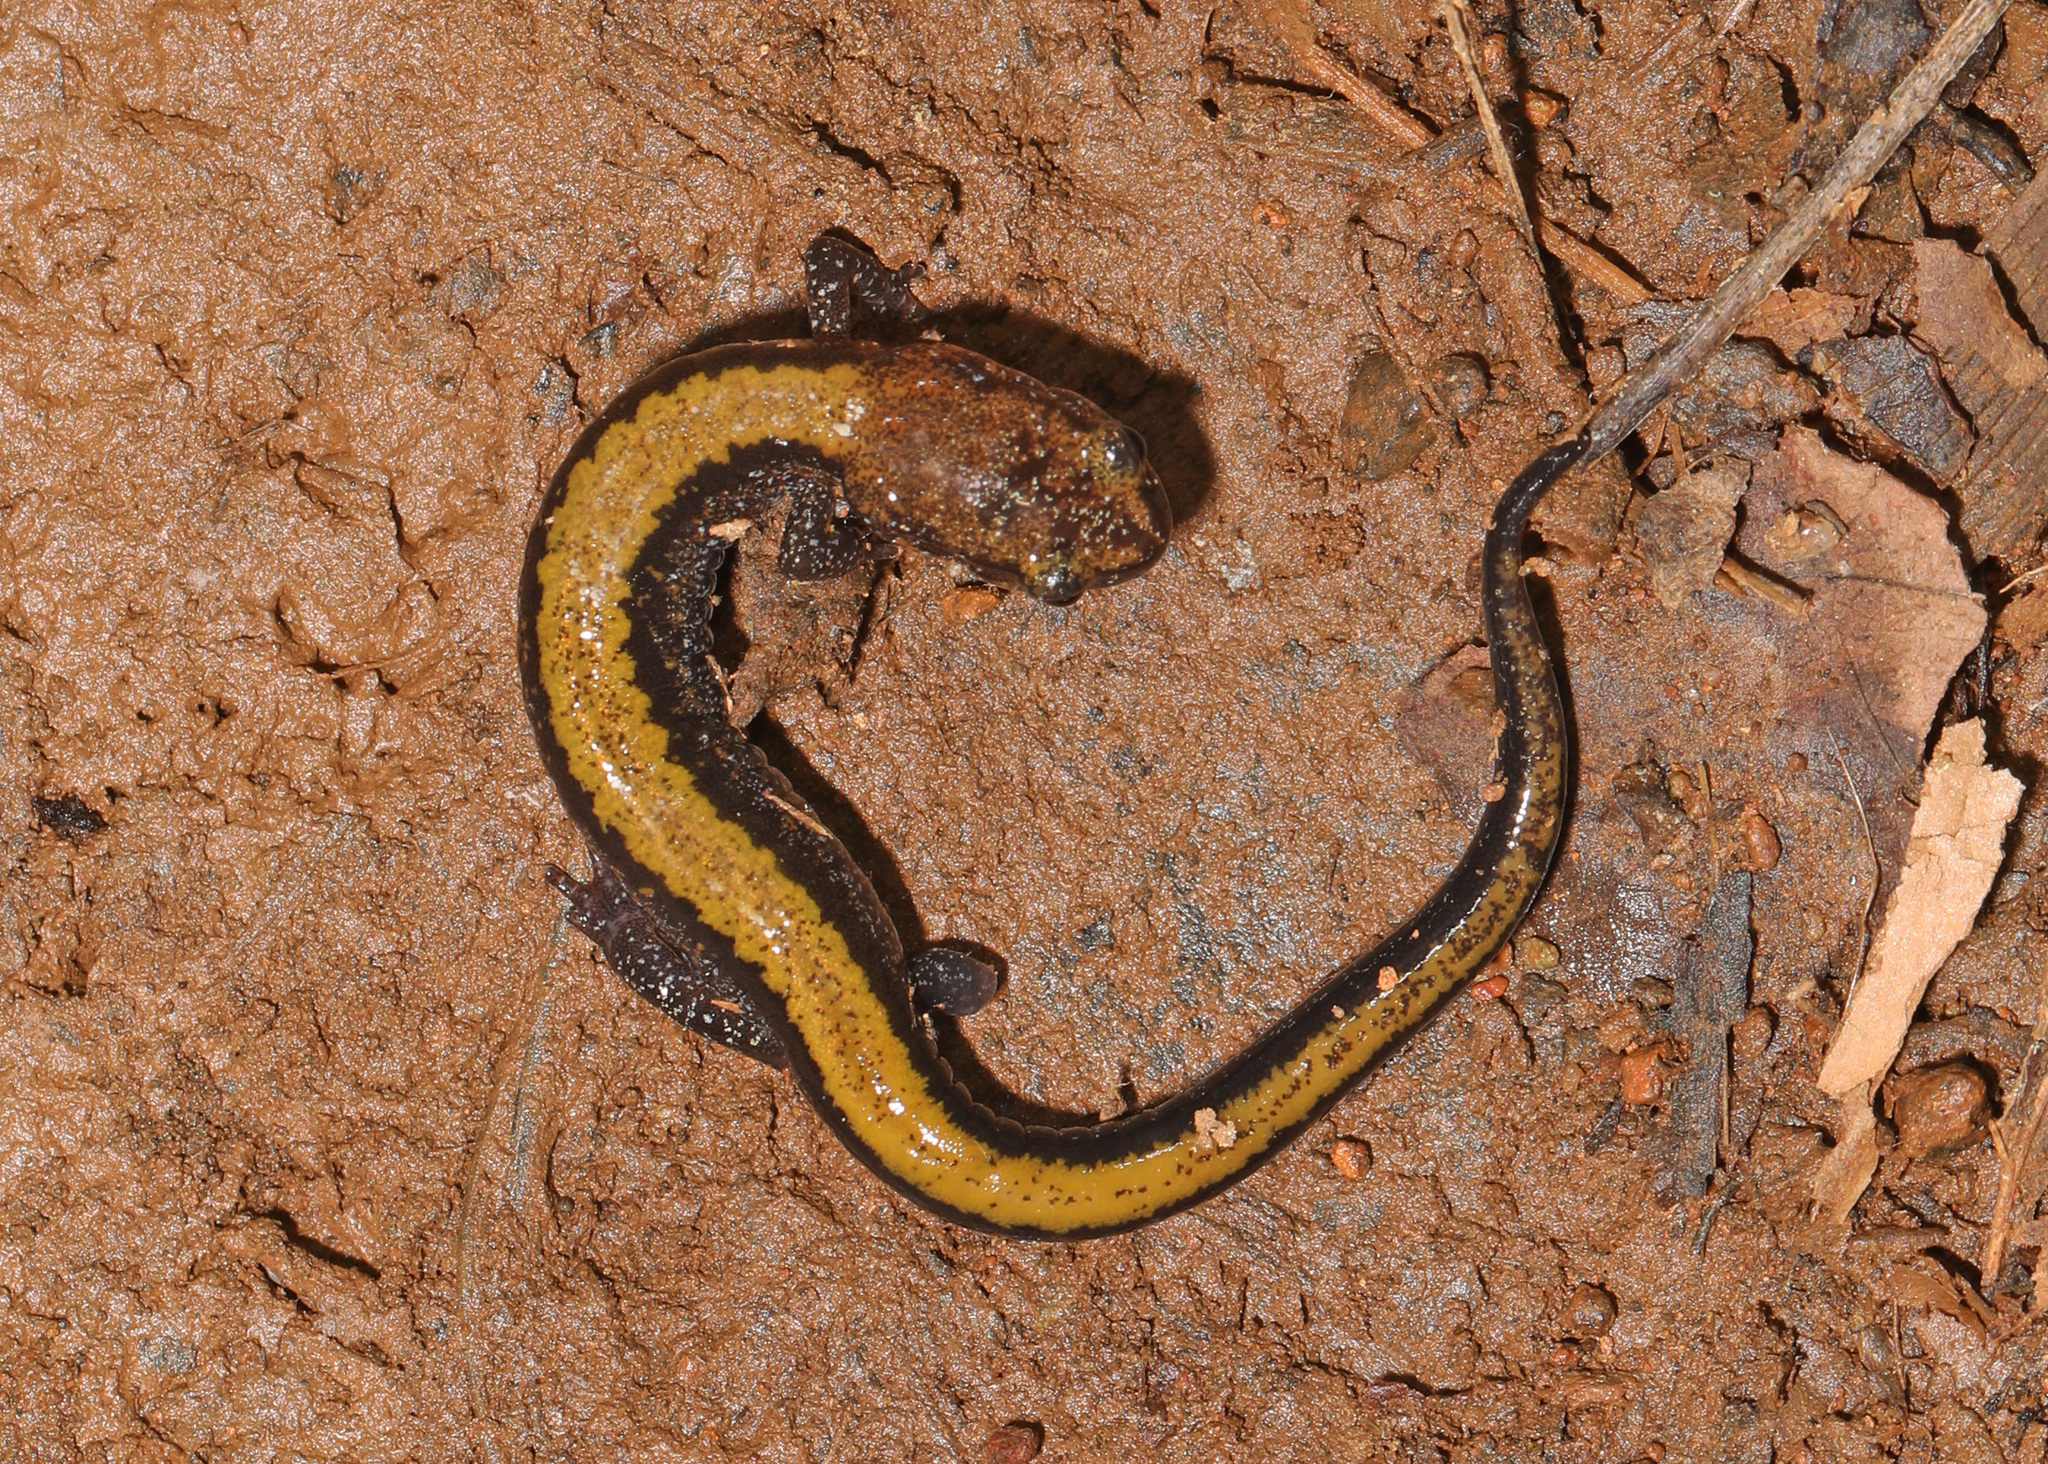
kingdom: Animalia
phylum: Chordata
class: Amphibia
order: Caudata
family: Plethodontidae
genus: Plethodon
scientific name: Plethodon cinereus
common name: Redback salamander
